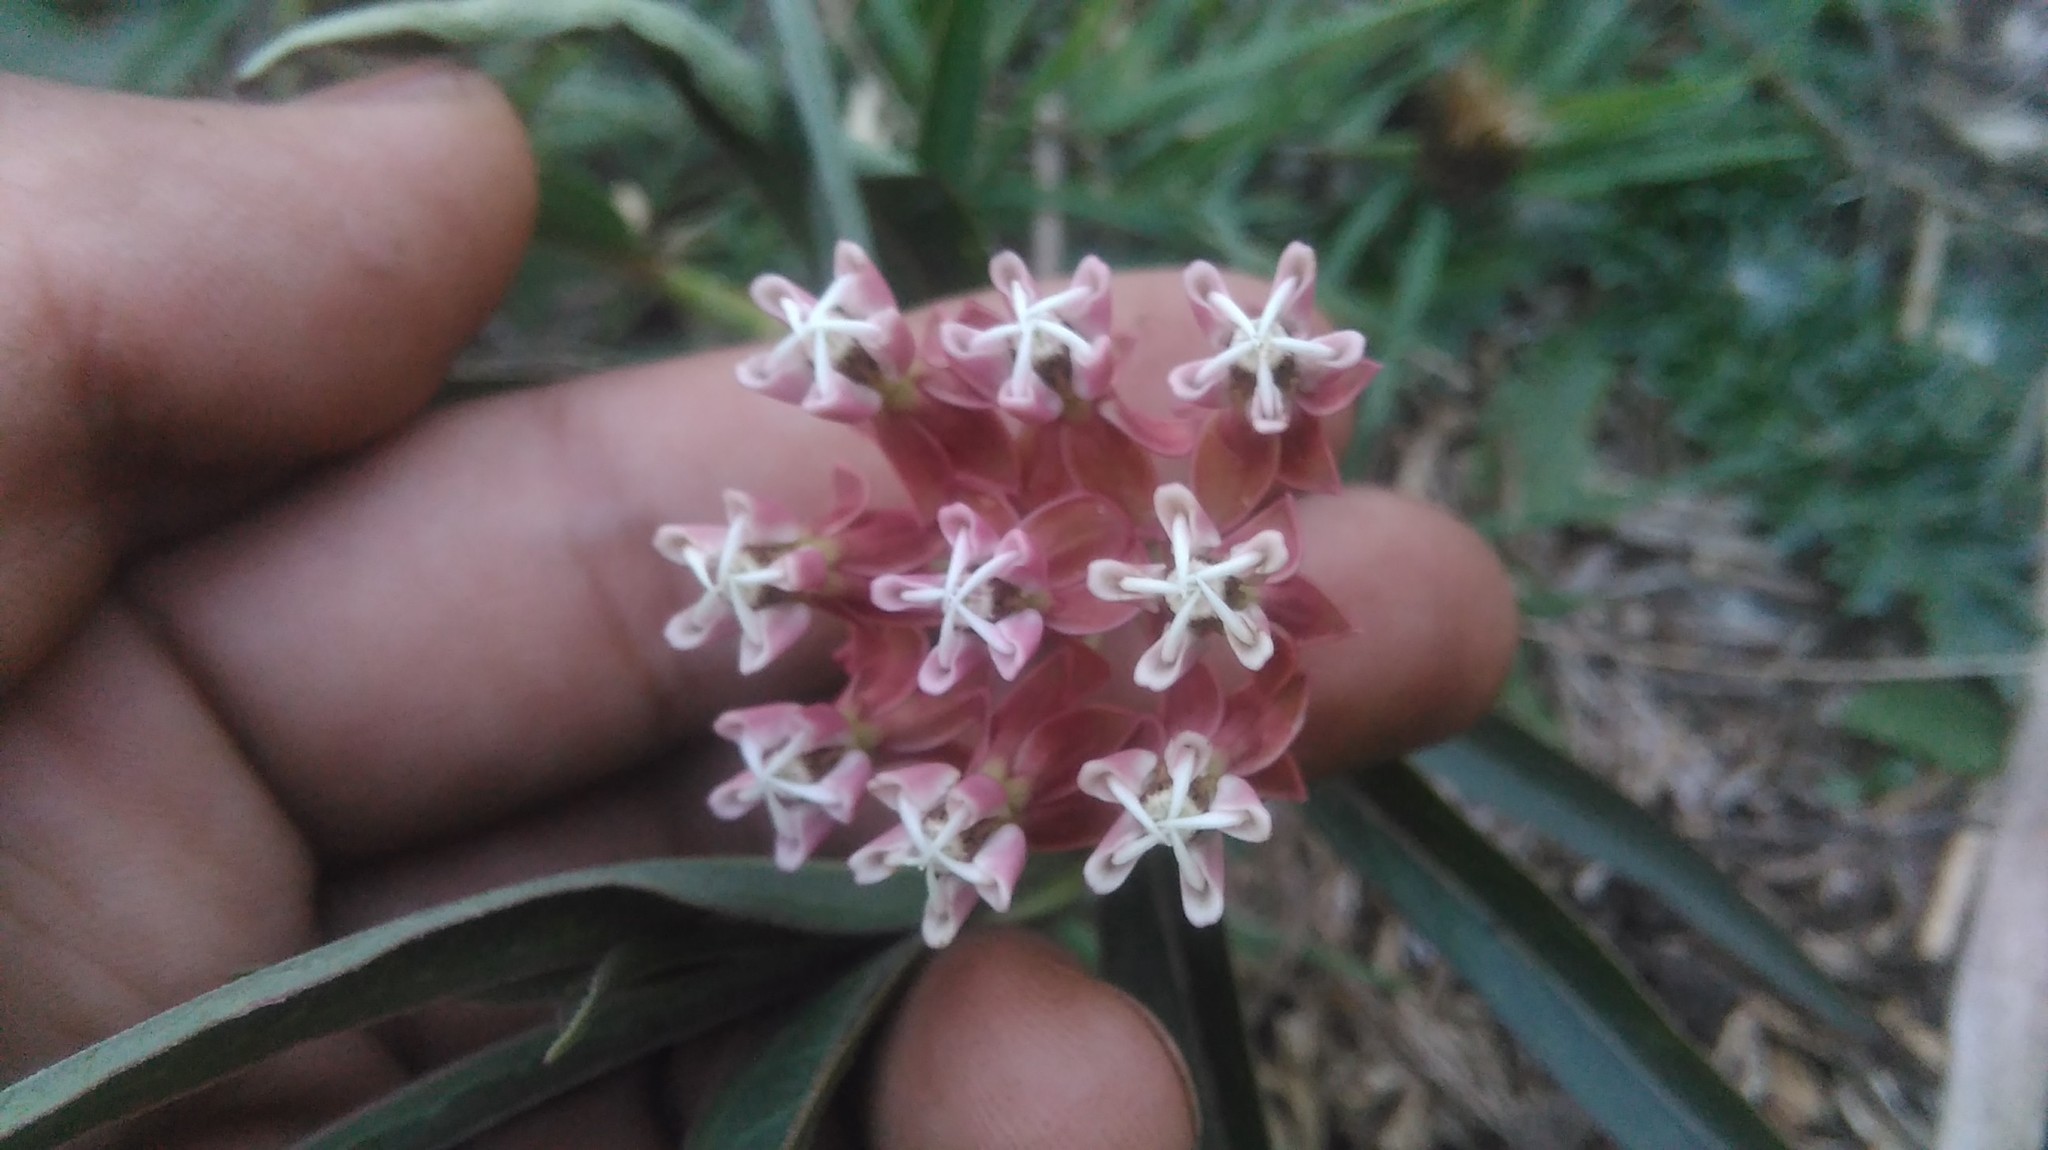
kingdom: Plantae
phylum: Tracheophyta
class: Magnoliopsida
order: Gentianales
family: Apocynaceae
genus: Asclepias
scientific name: Asclepias mellodora
